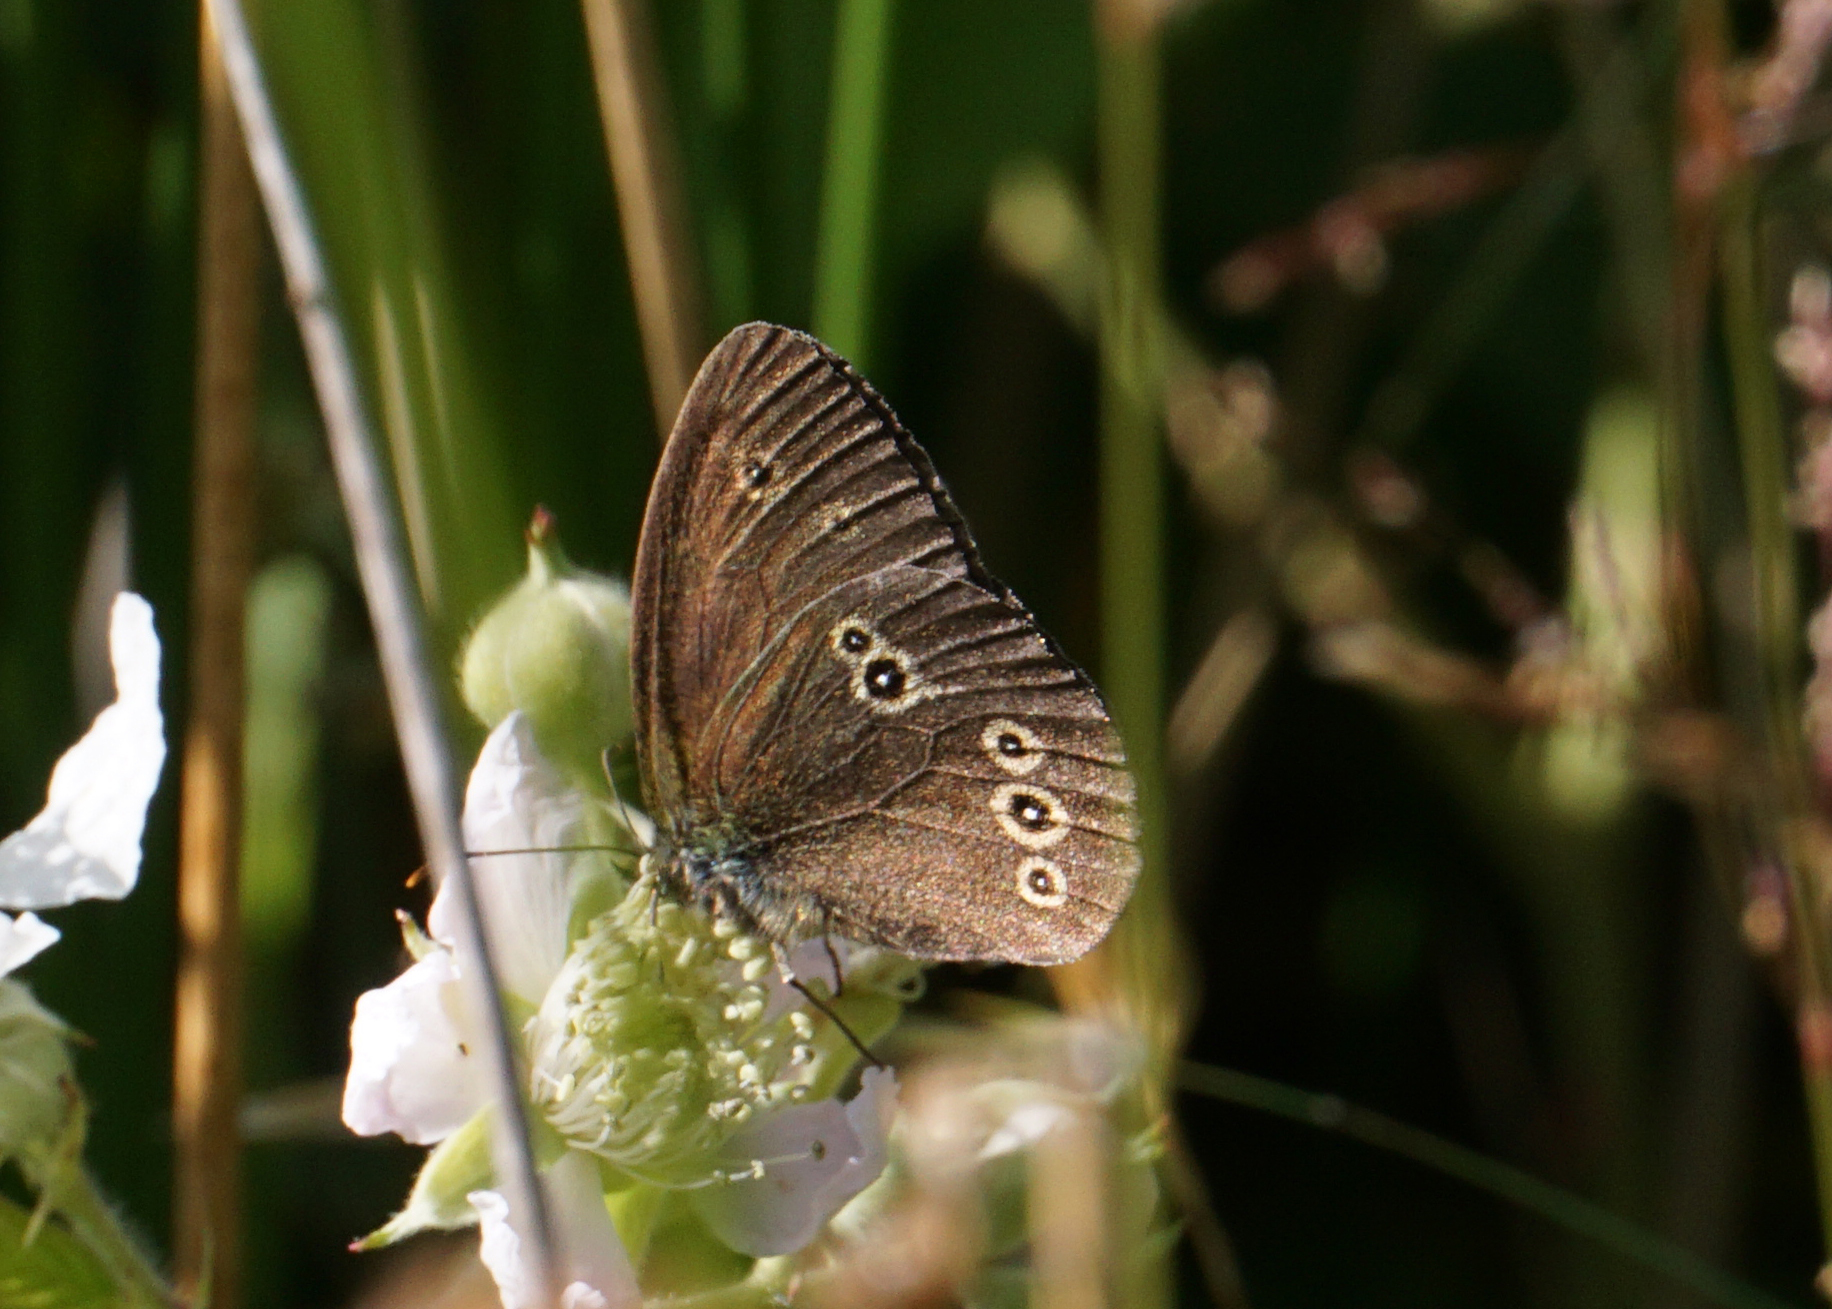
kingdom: Animalia
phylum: Arthropoda
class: Insecta
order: Lepidoptera
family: Nymphalidae
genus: Aphantopus
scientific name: Aphantopus hyperantus
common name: Ringlet
